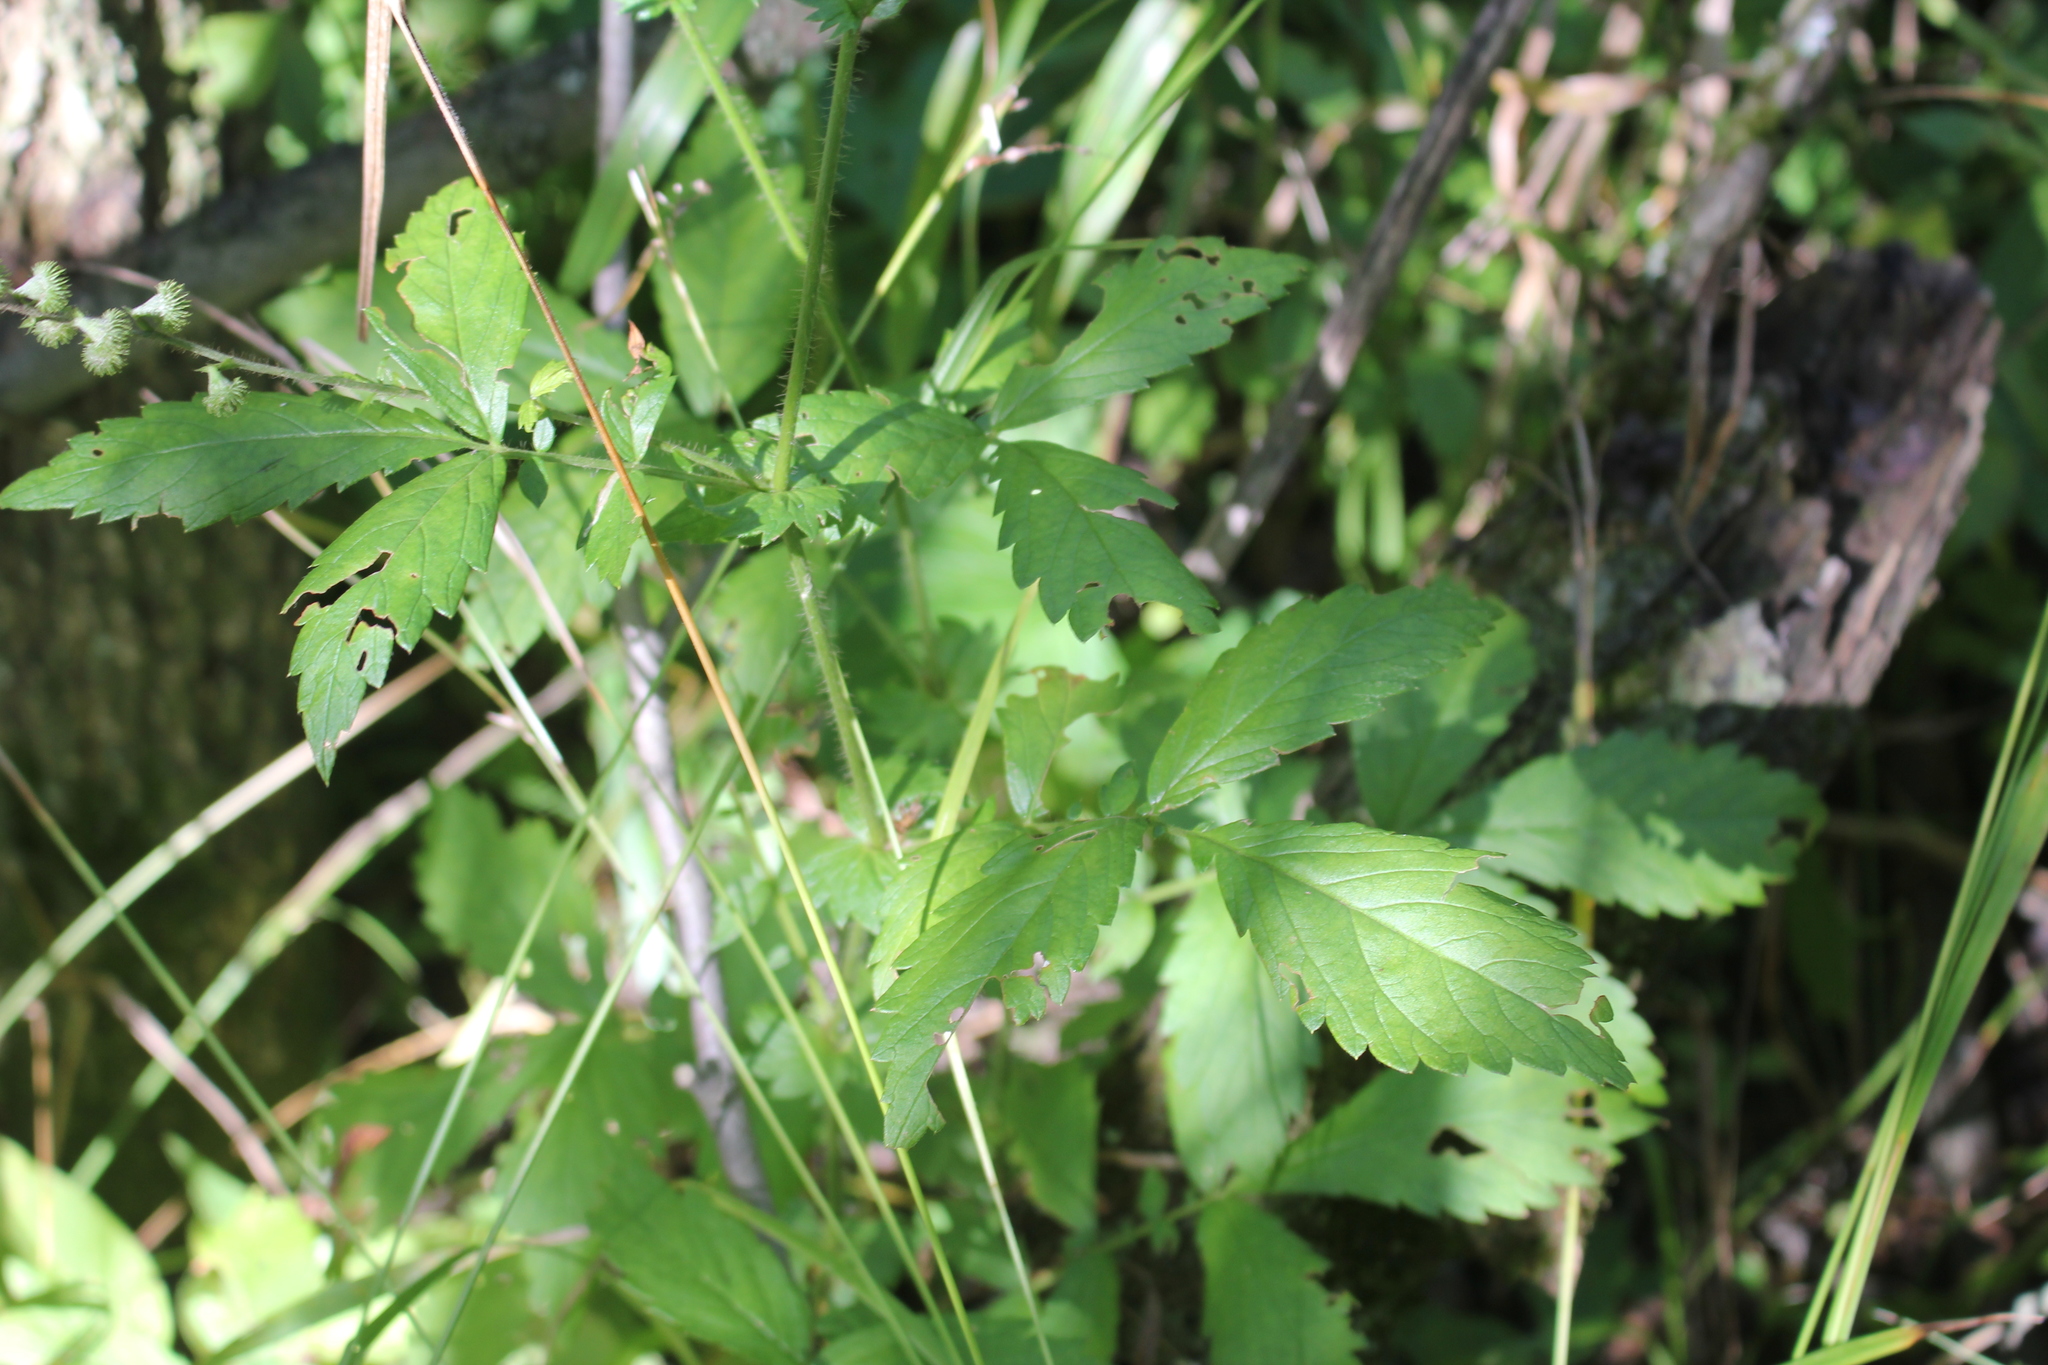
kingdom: Plantae
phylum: Tracheophyta
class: Magnoliopsida
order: Rosales
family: Rosaceae
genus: Agrimonia
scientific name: Agrimonia gryposepala
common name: Common agrimony
